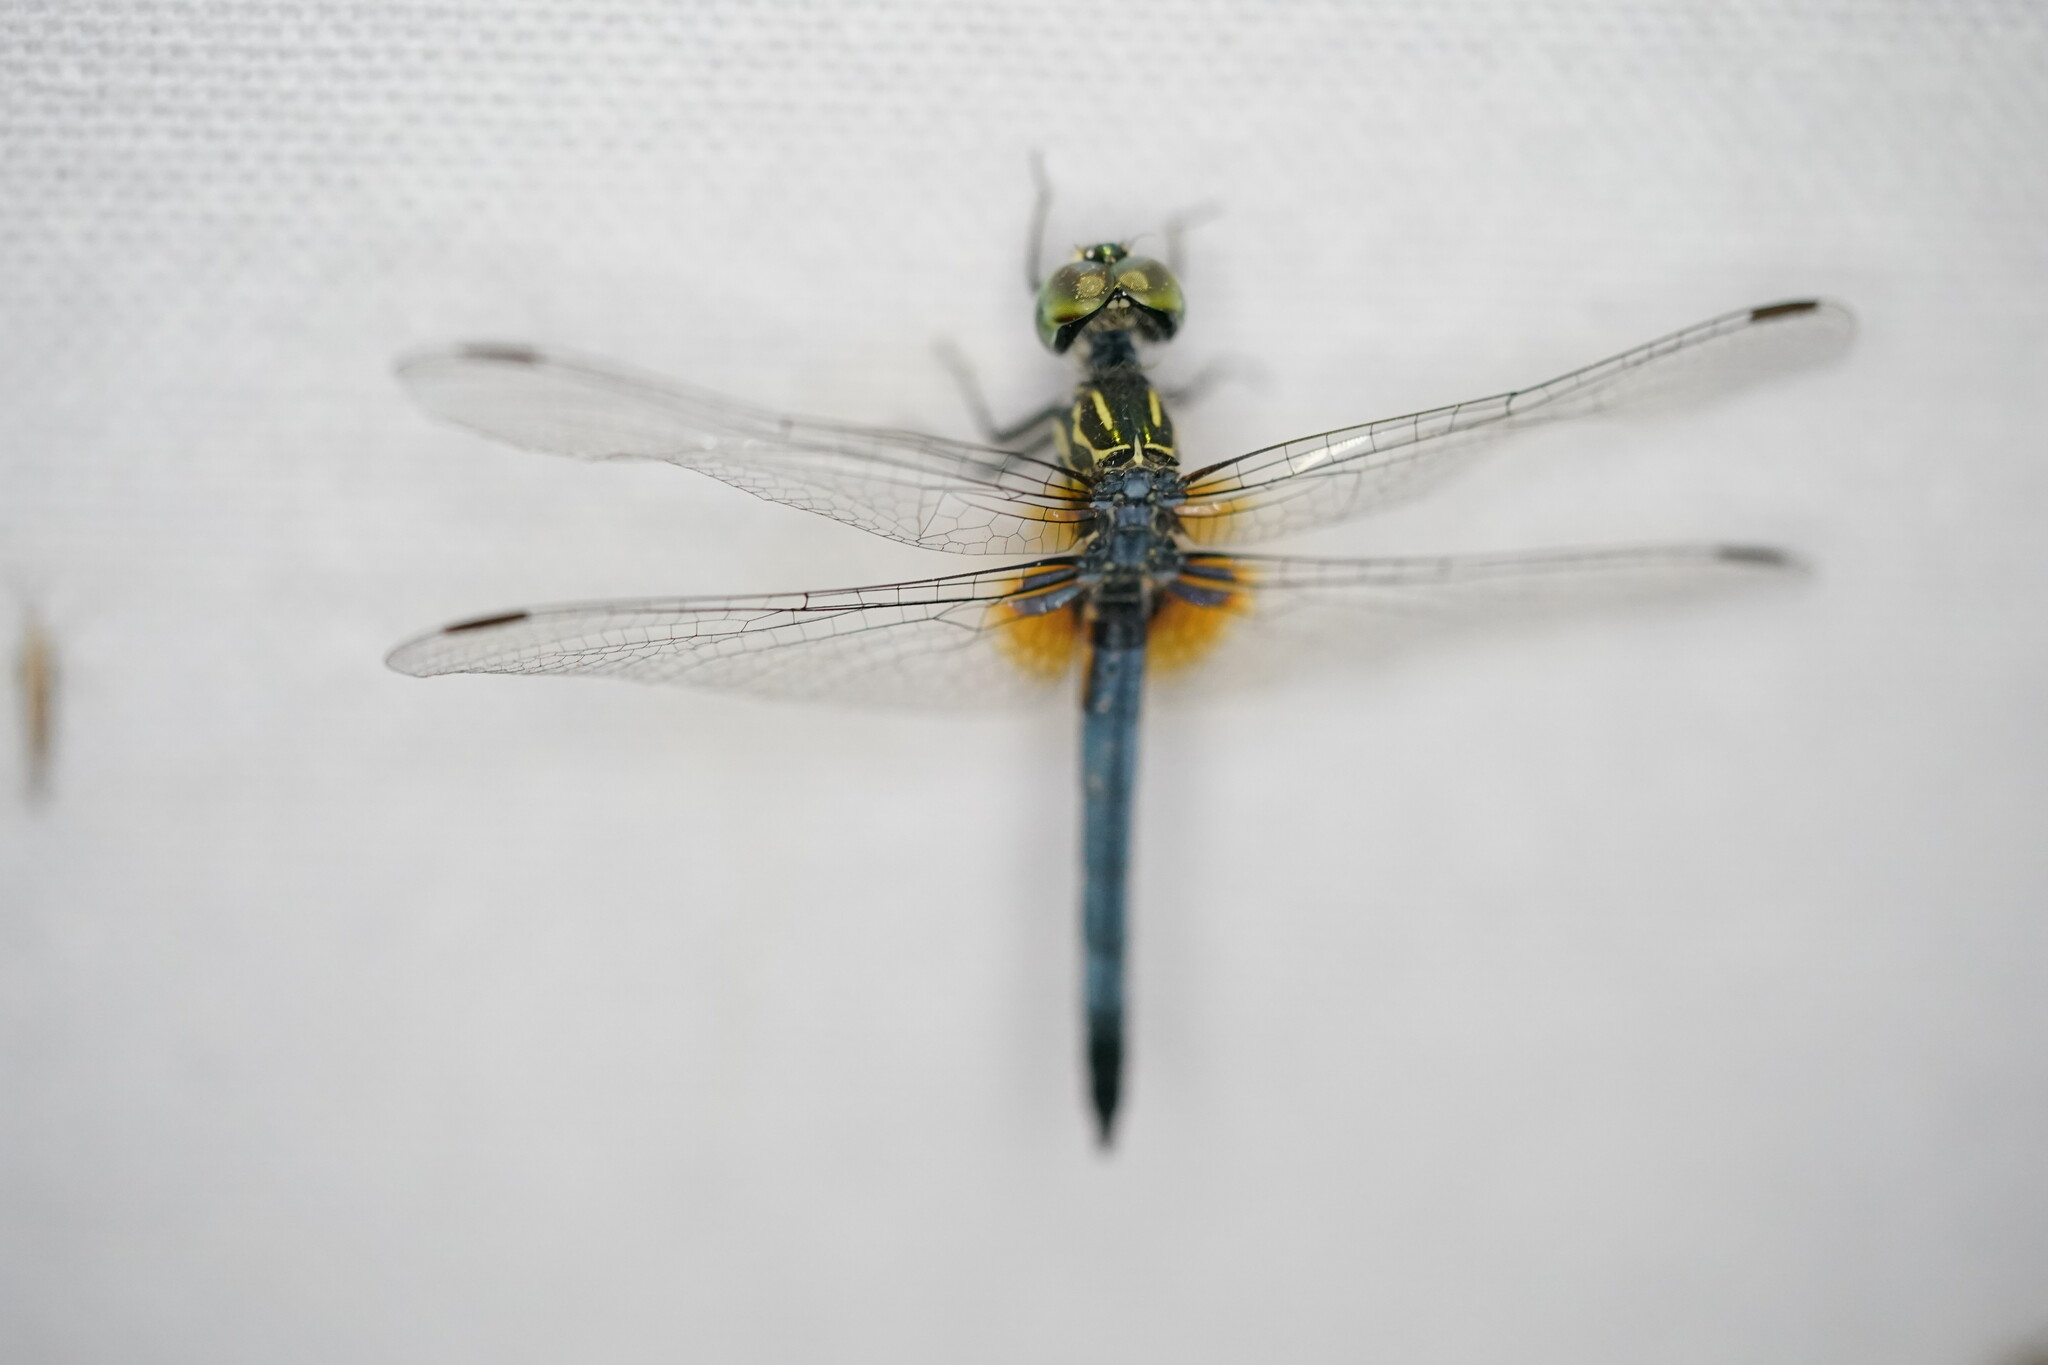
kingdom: Animalia
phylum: Arthropoda
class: Insecta
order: Odonata
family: Libellulidae
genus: Pachydiplax
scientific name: Pachydiplax longipennis
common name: Blue dasher
